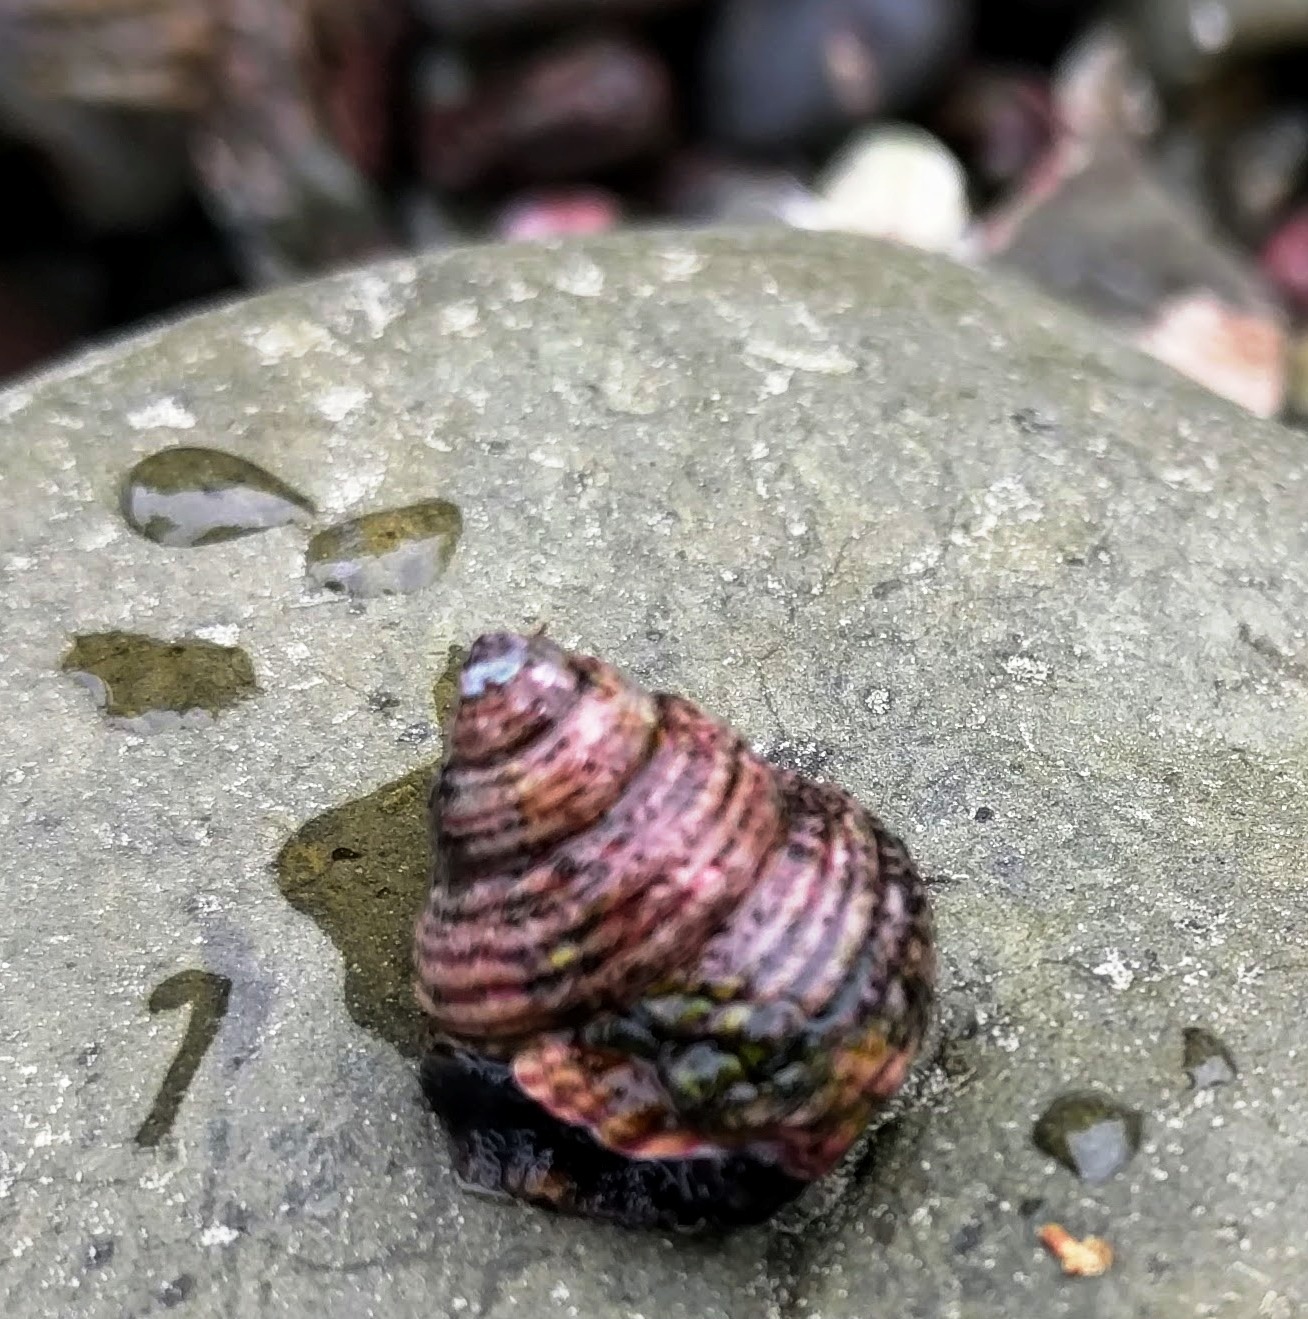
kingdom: Animalia
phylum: Mollusca
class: Gastropoda
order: Trochida
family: Calliostomatidae
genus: Calliostoma
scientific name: Calliostoma ligatum
